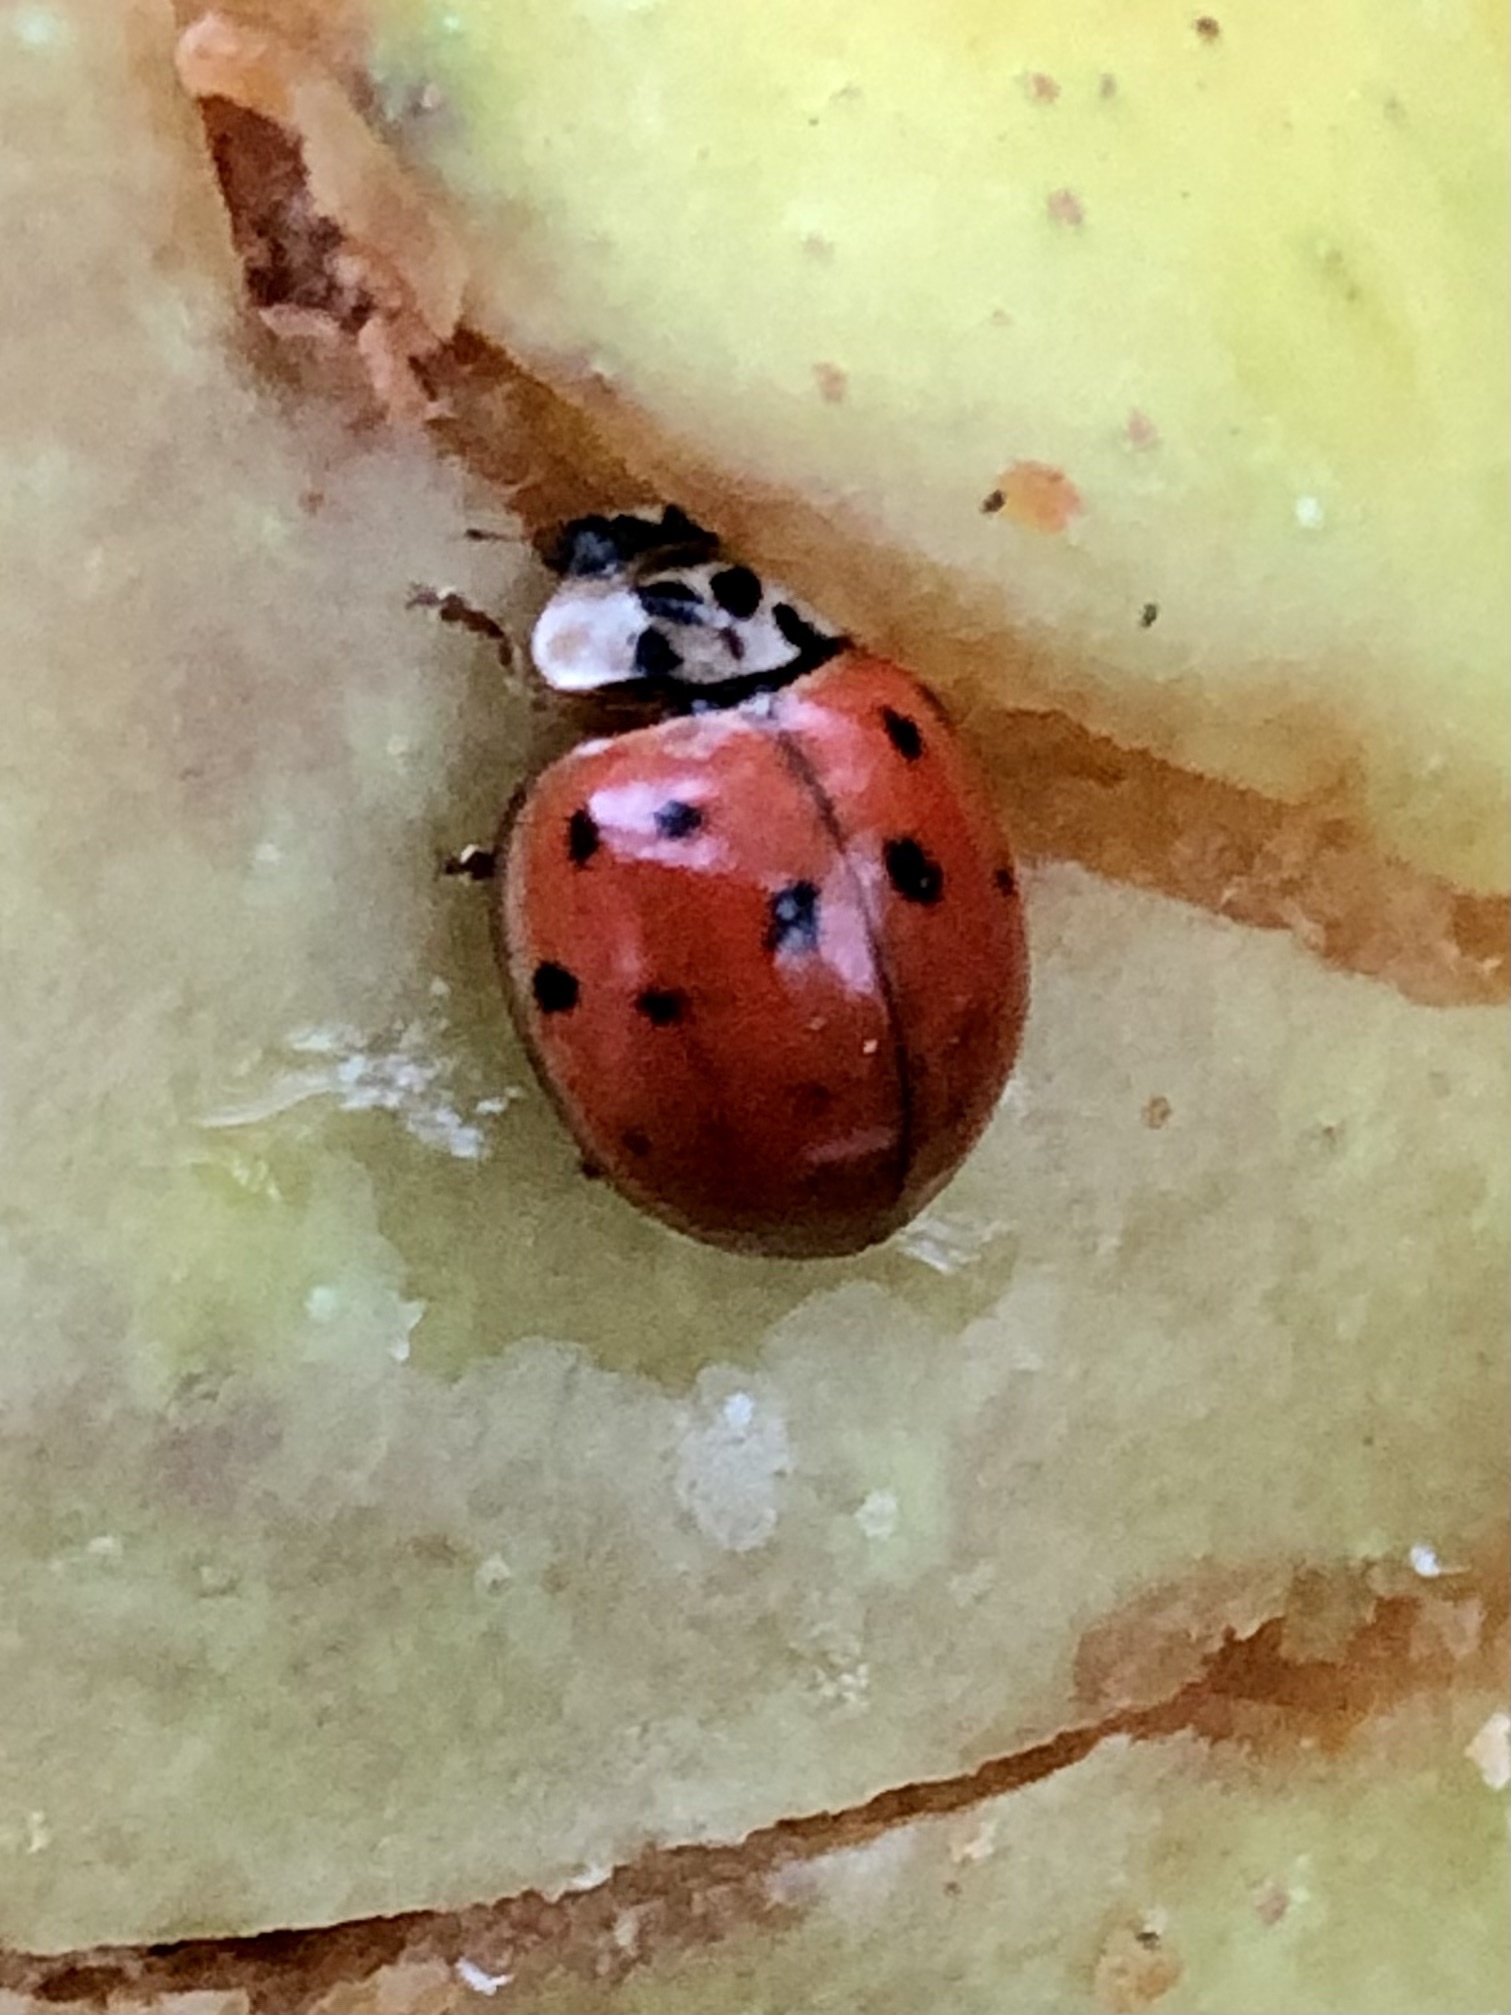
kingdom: Animalia
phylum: Arthropoda
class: Insecta
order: Coleoptera
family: Coccinellidae
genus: Harmonia
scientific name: Harmonia axyridis
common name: Harlequin ladybird
